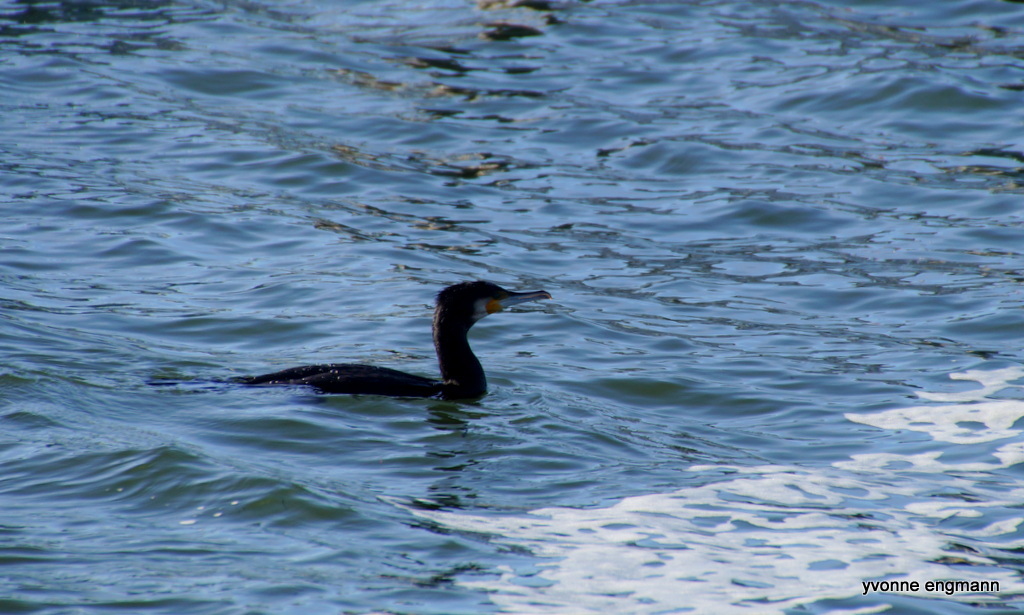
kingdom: Animalia
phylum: Chordata
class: Aves
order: Suliformes
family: Phalacrocoracidae
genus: Phalacrocorax
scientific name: Phalacrocorax carbo
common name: Great cormorant
